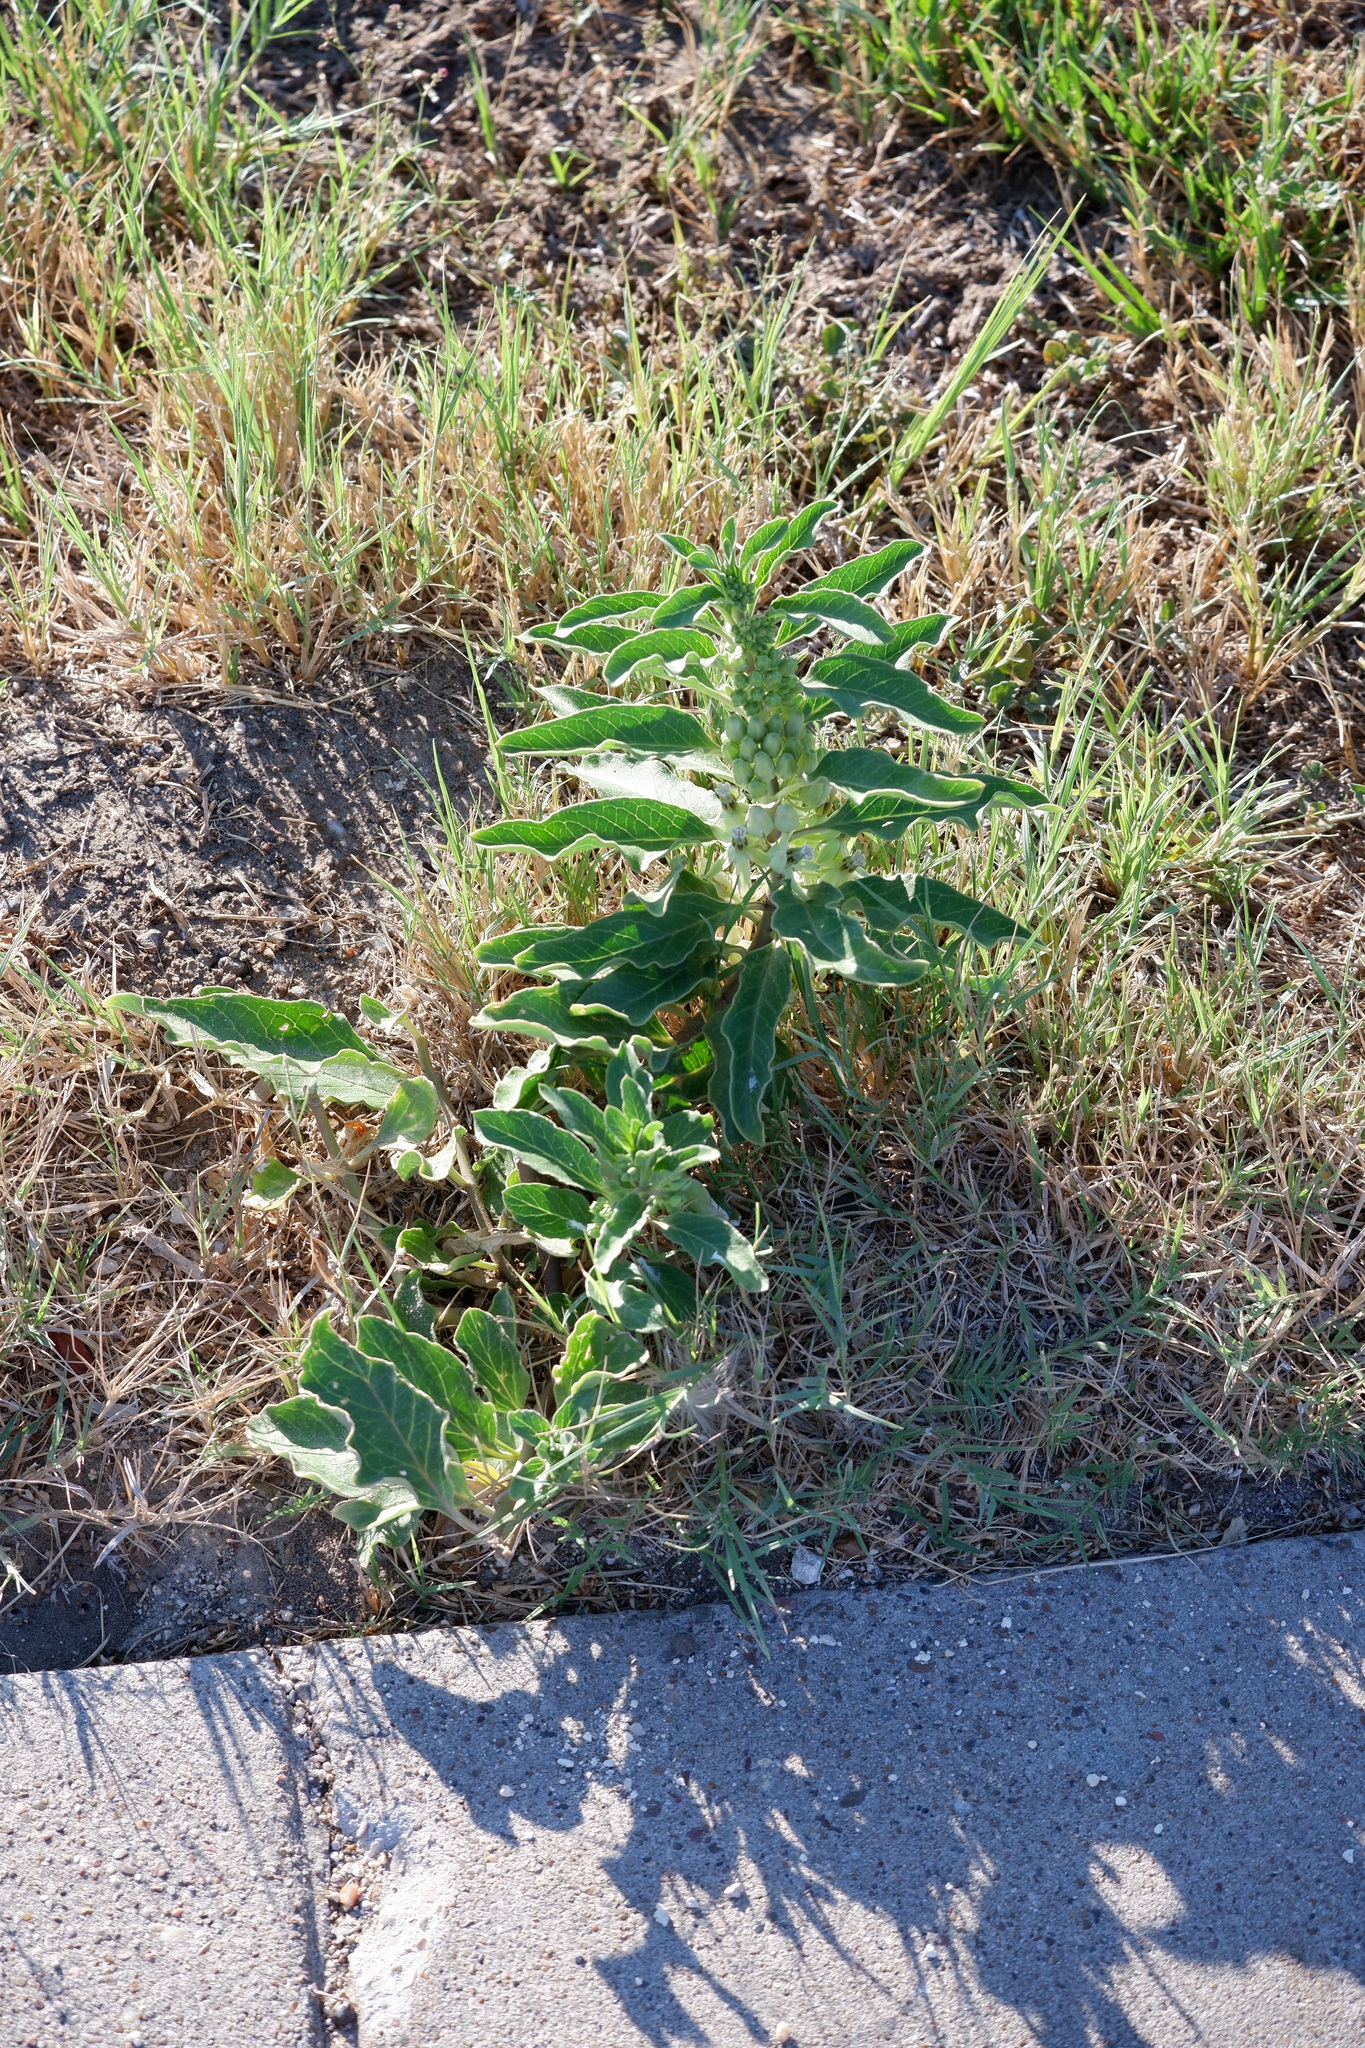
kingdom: Plantae
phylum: Tracheophyta
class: Magnoliopsida
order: Gentianales
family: Apocynaceae
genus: Asclepias
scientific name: Asclepias oenotheroides
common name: Zizotes milkweed
